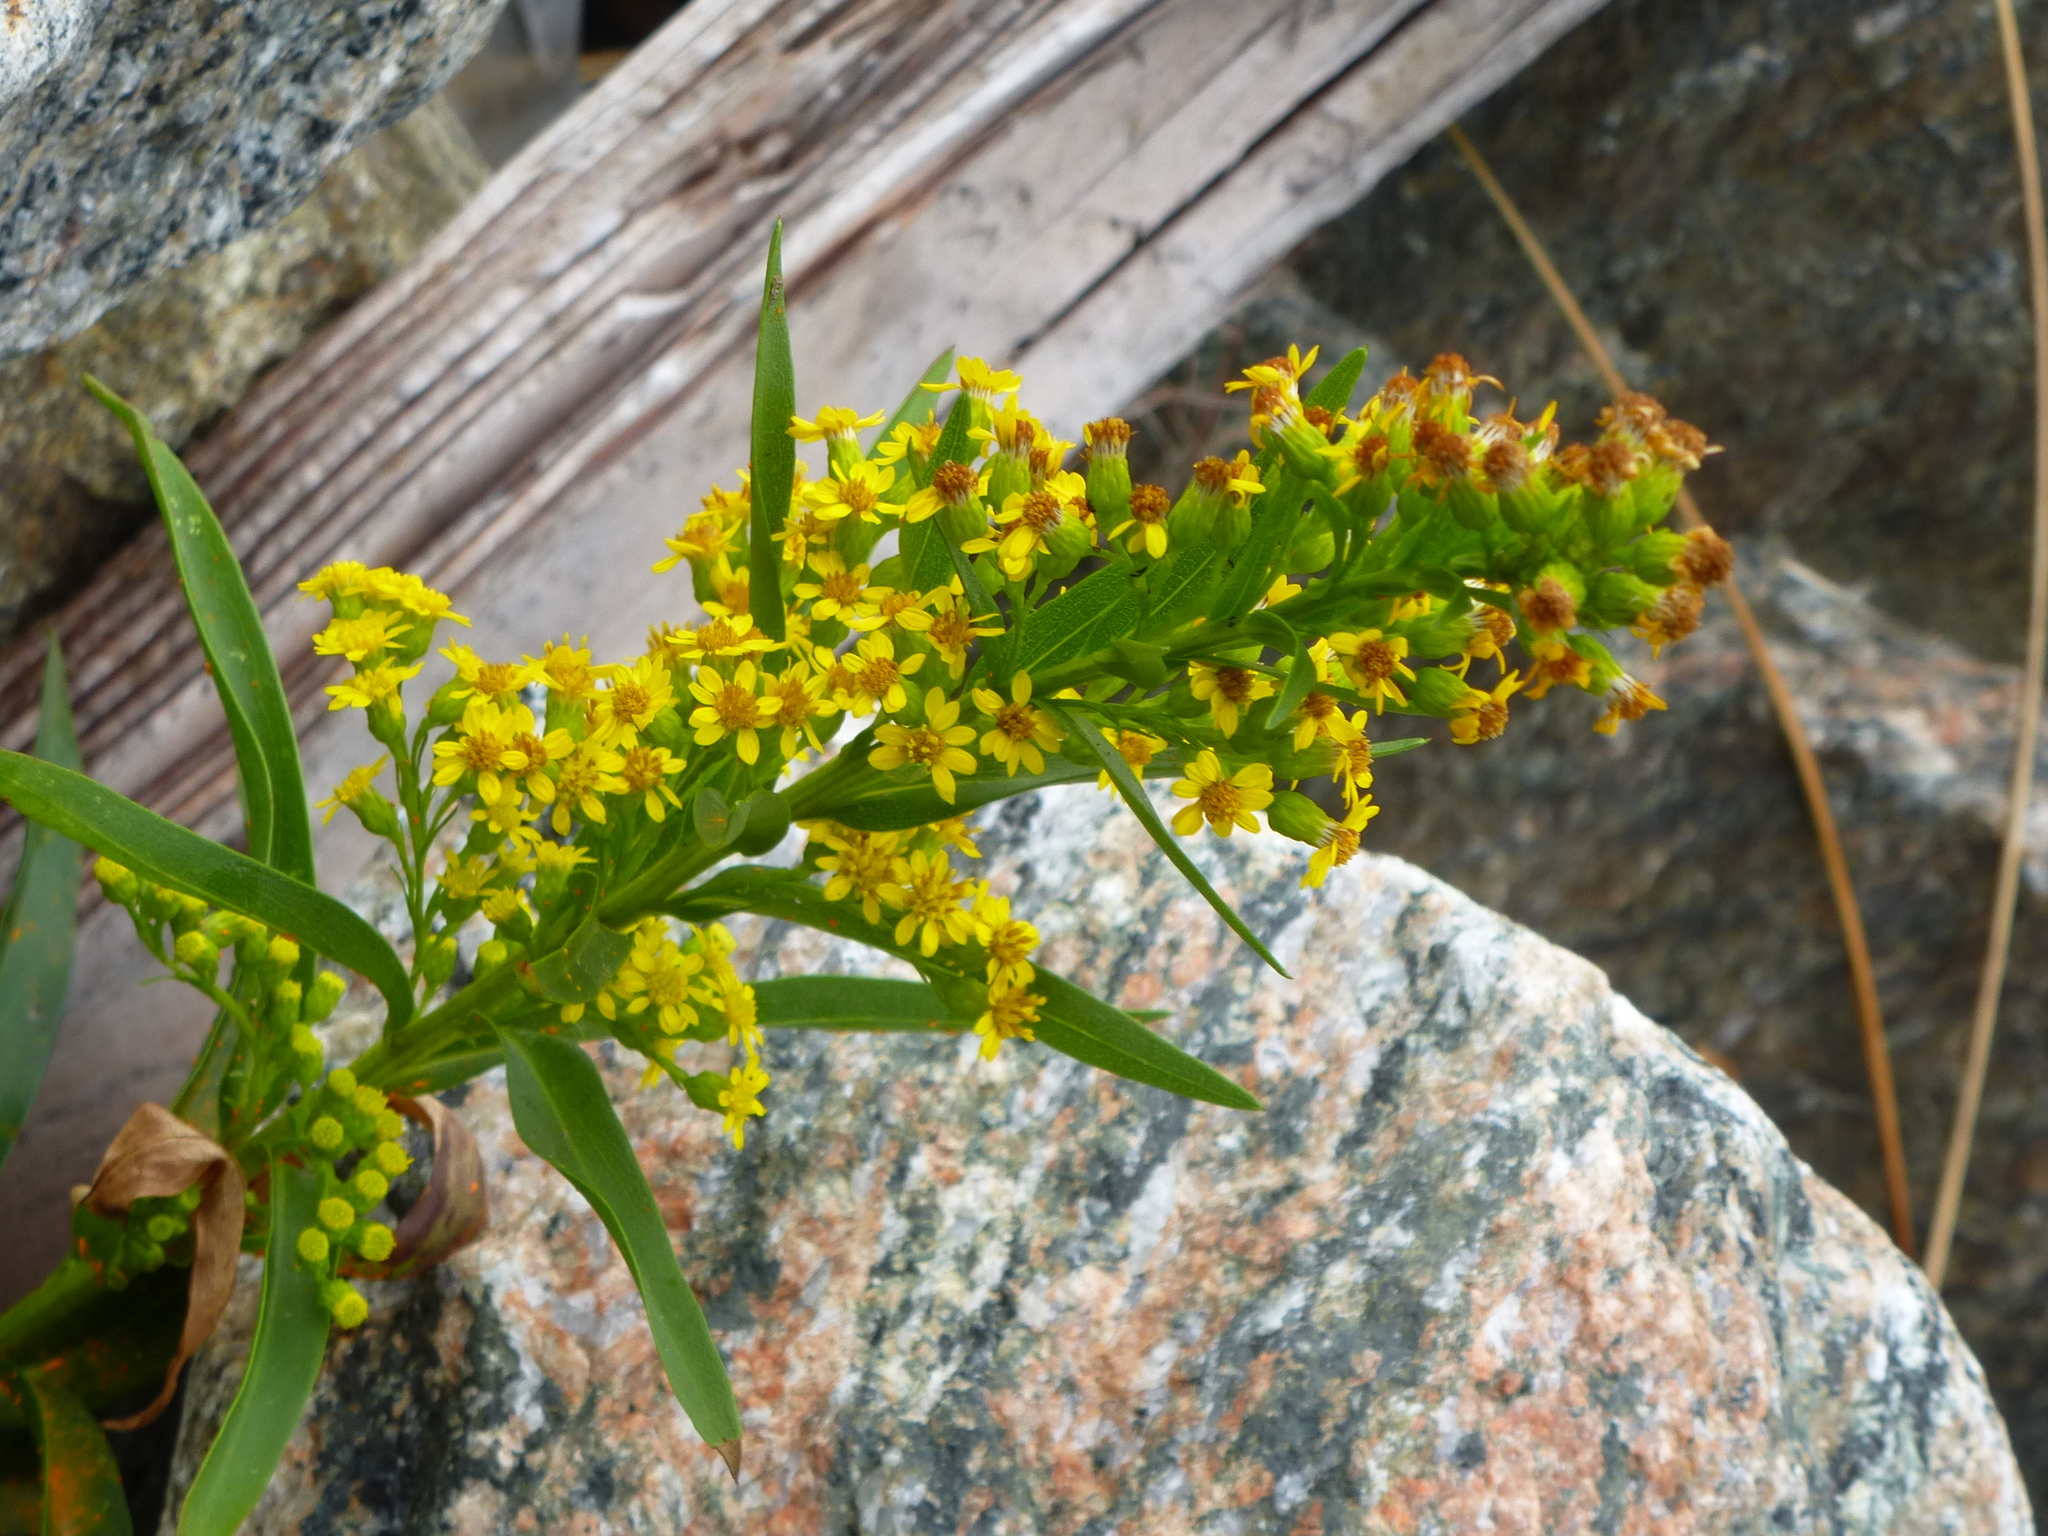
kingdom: Plantae
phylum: Tracheophyta
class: Magnoliopsida
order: Asterales
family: Asteraceae
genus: Solidago
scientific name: Solidago sempervirens
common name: Salt-marsh goldenrod
